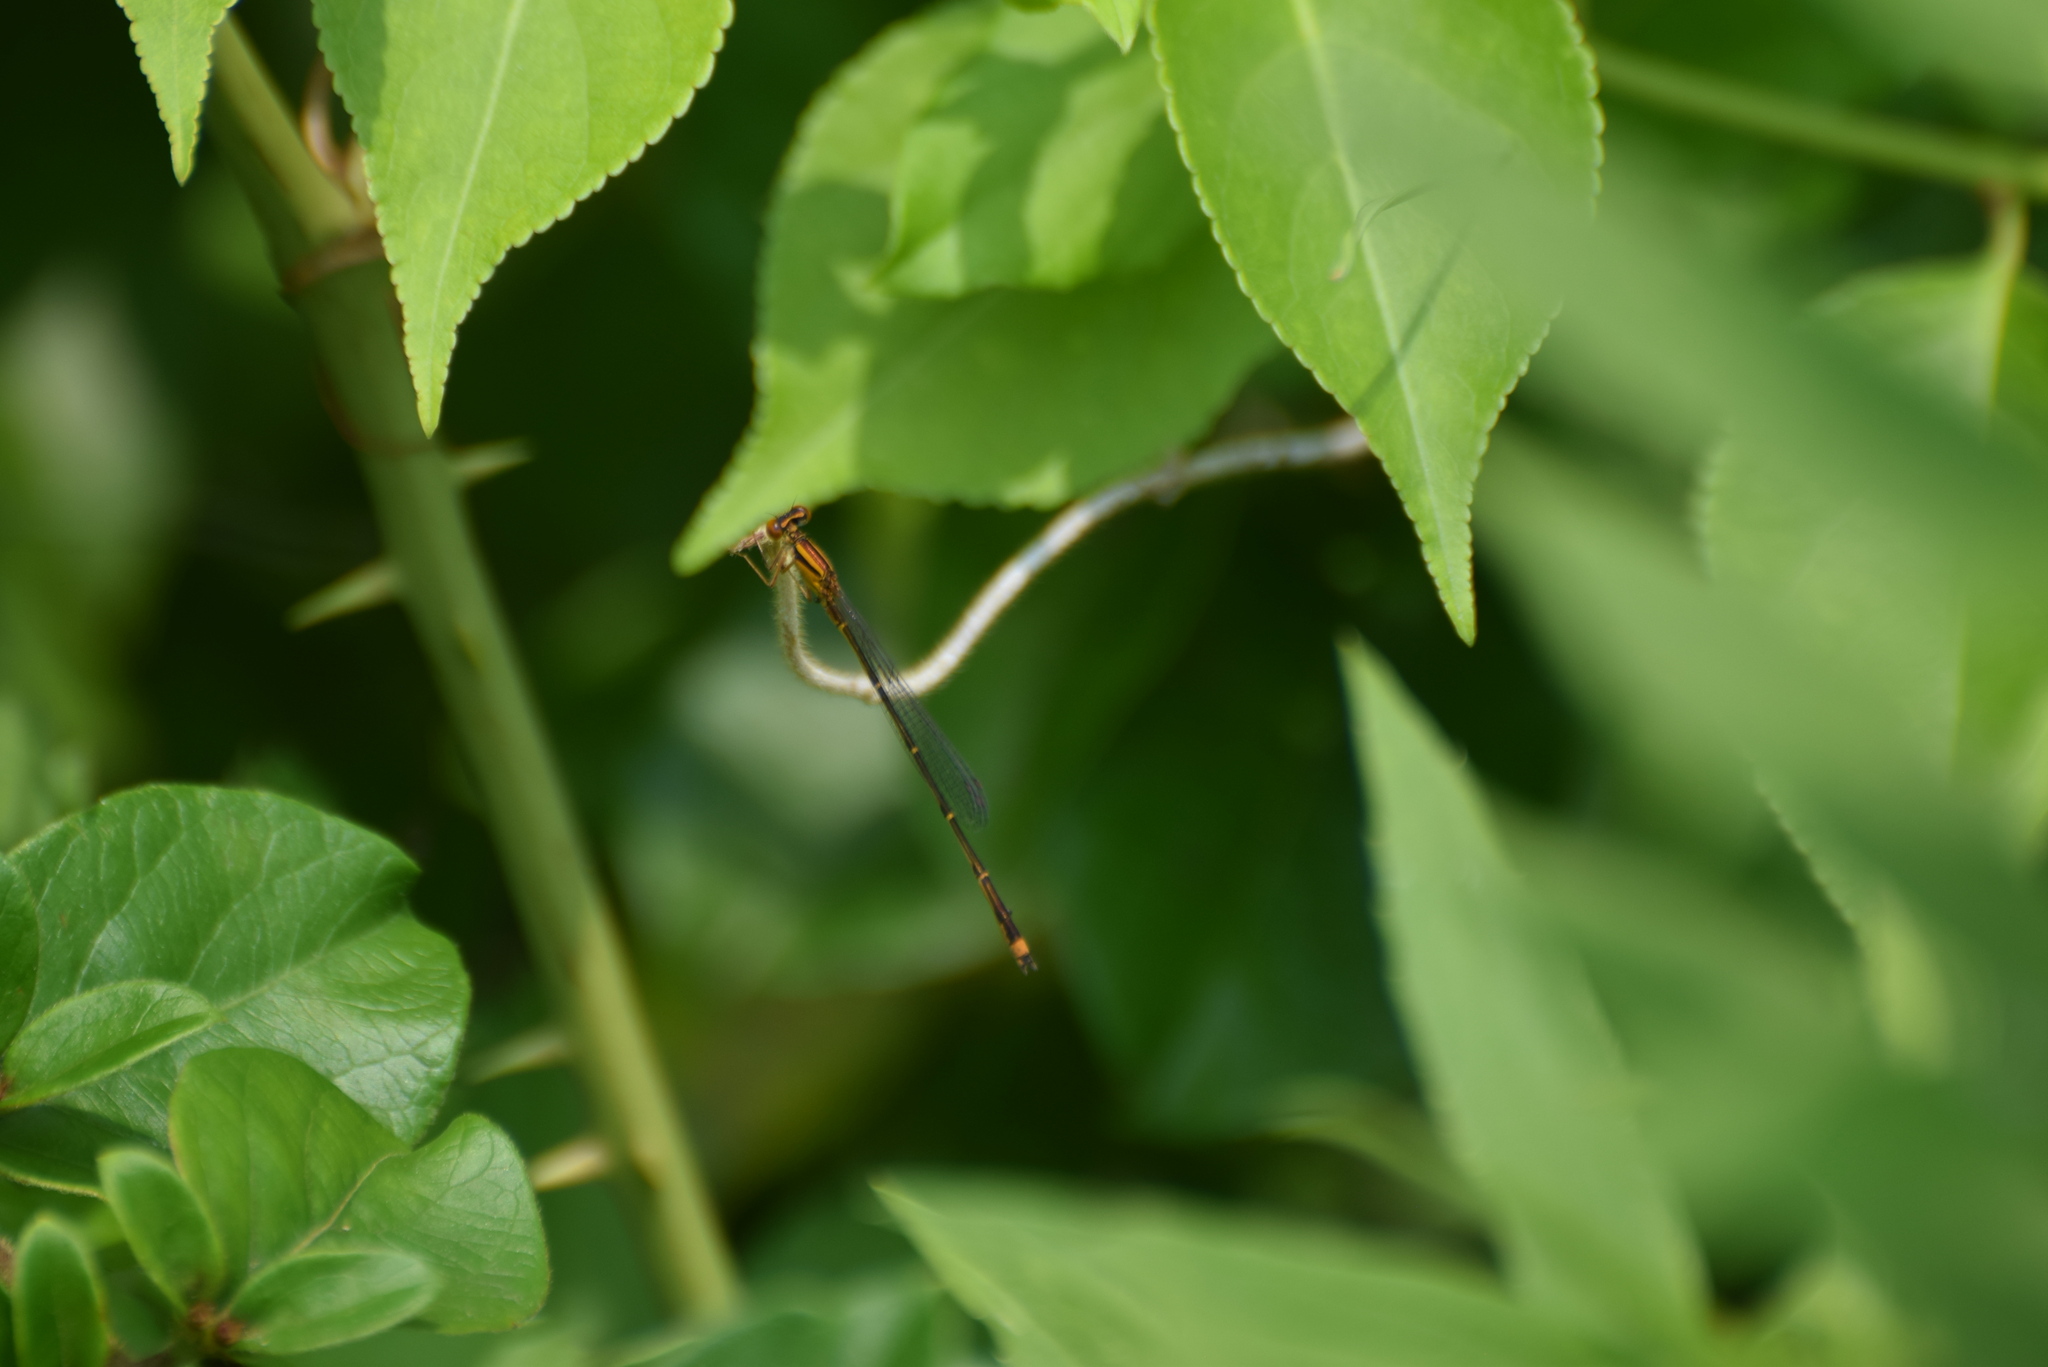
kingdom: Animalia
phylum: Arthropoda
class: Insecta
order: Odonata
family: Coenagrionidae
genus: Enallagma
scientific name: Enallagma signatum
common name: Orange bluet
